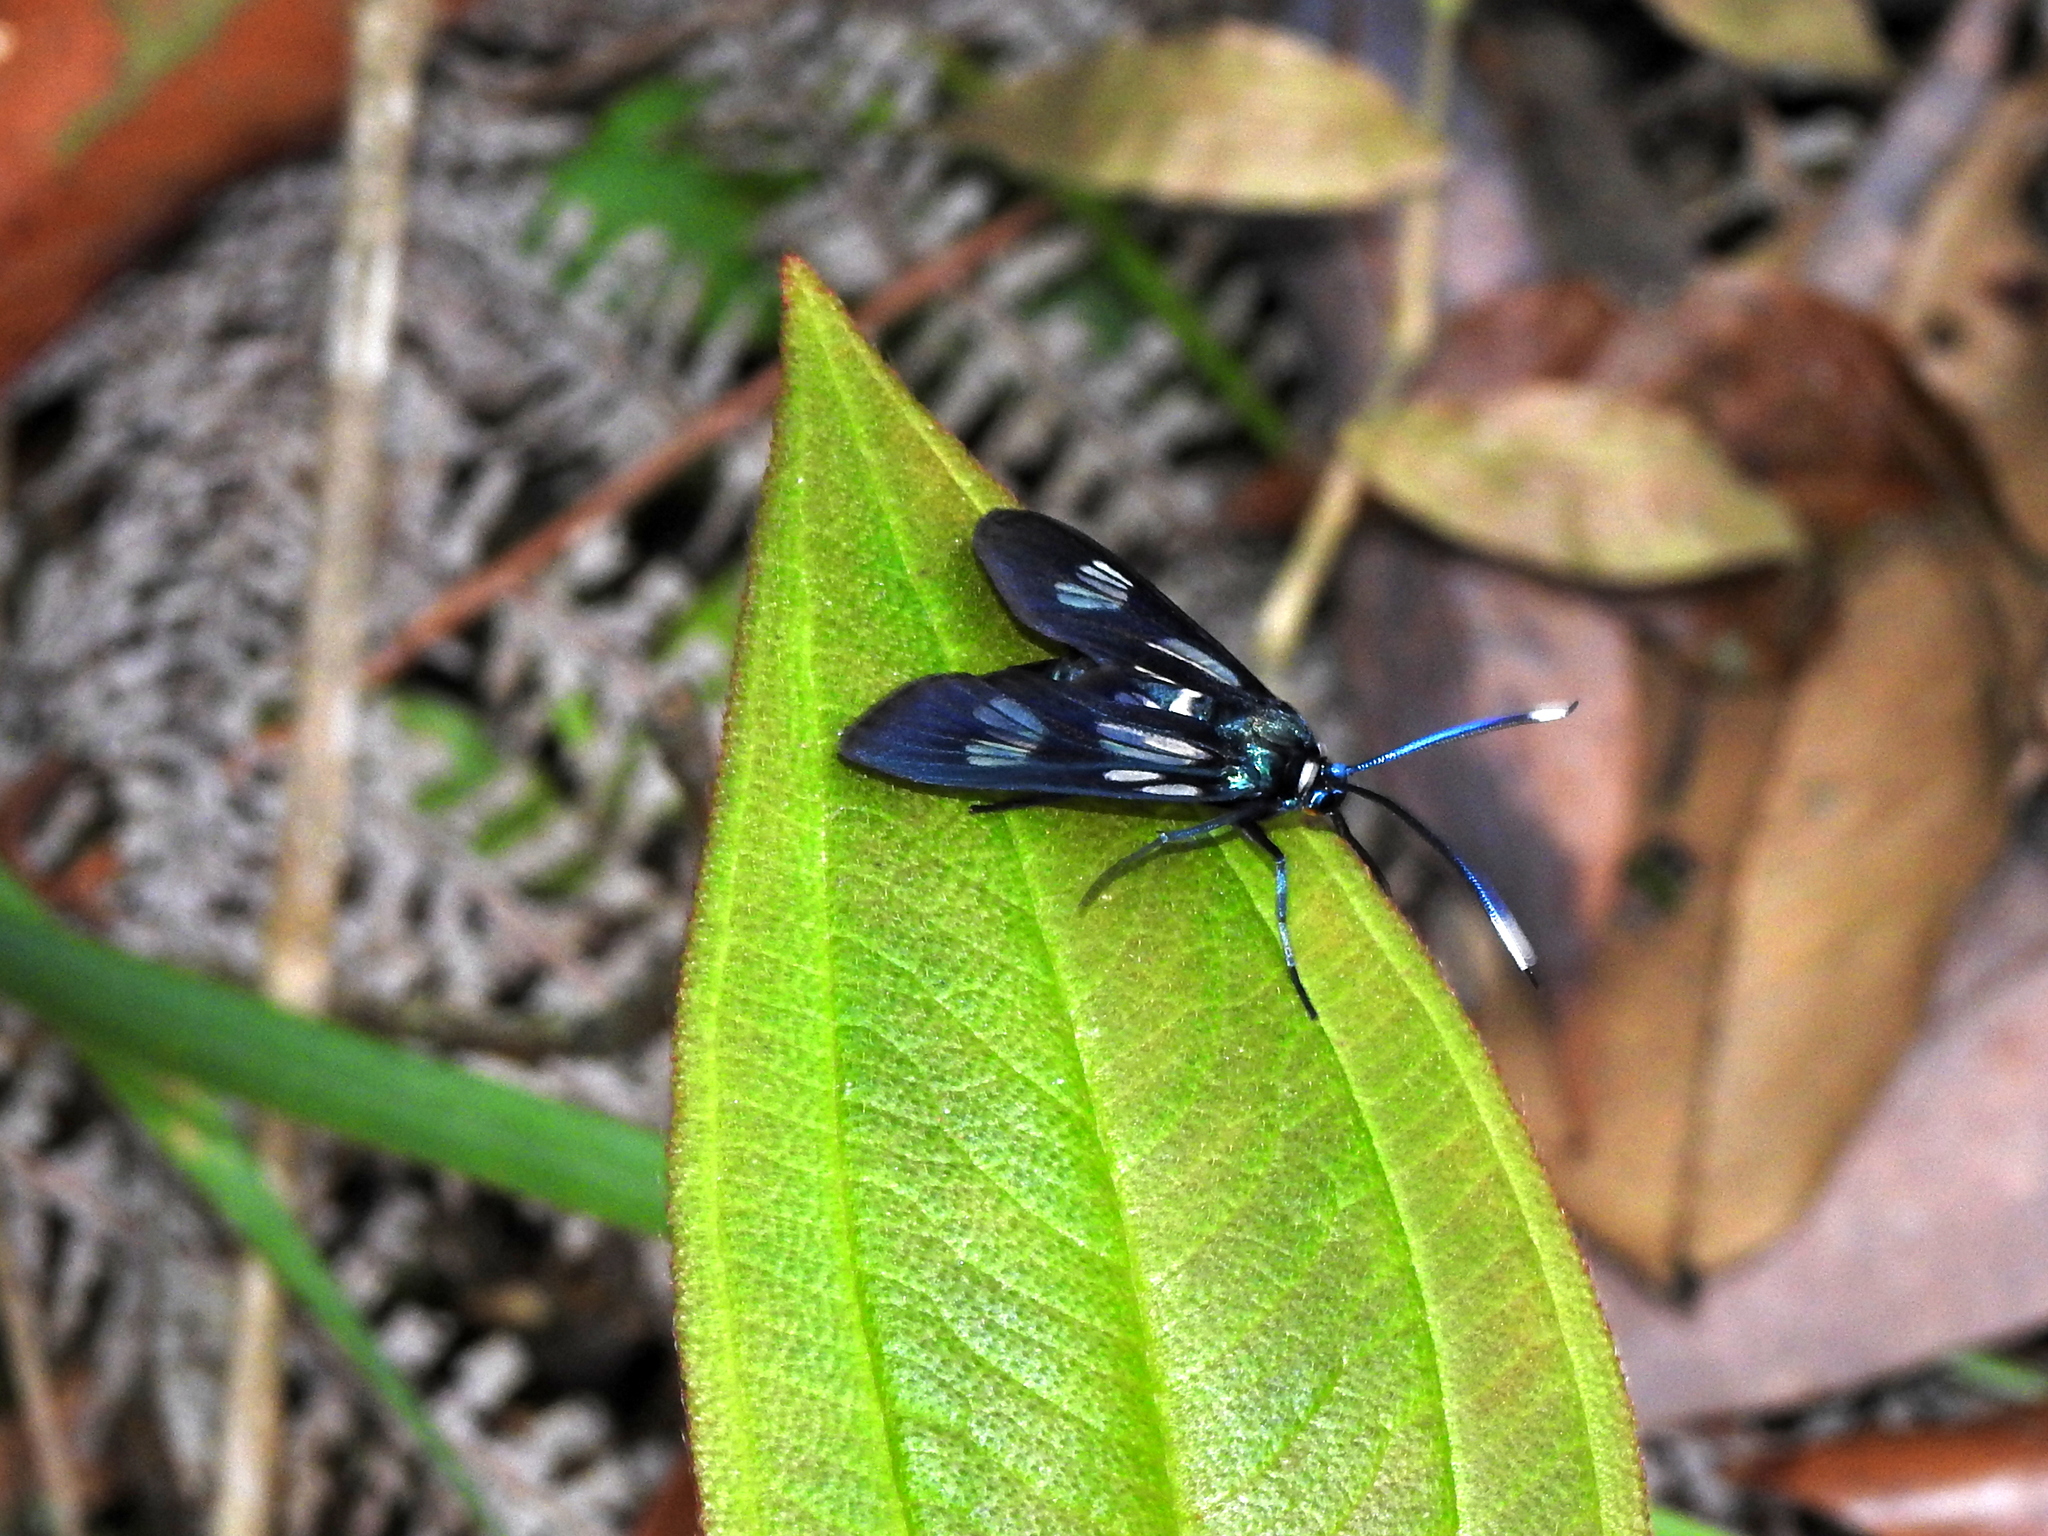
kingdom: Animalia
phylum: Arthropoda
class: Insecta
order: Lepidoptera
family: Zygaenidae
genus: Piarosoma
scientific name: Piarosoma Hysteroscene hyalina
